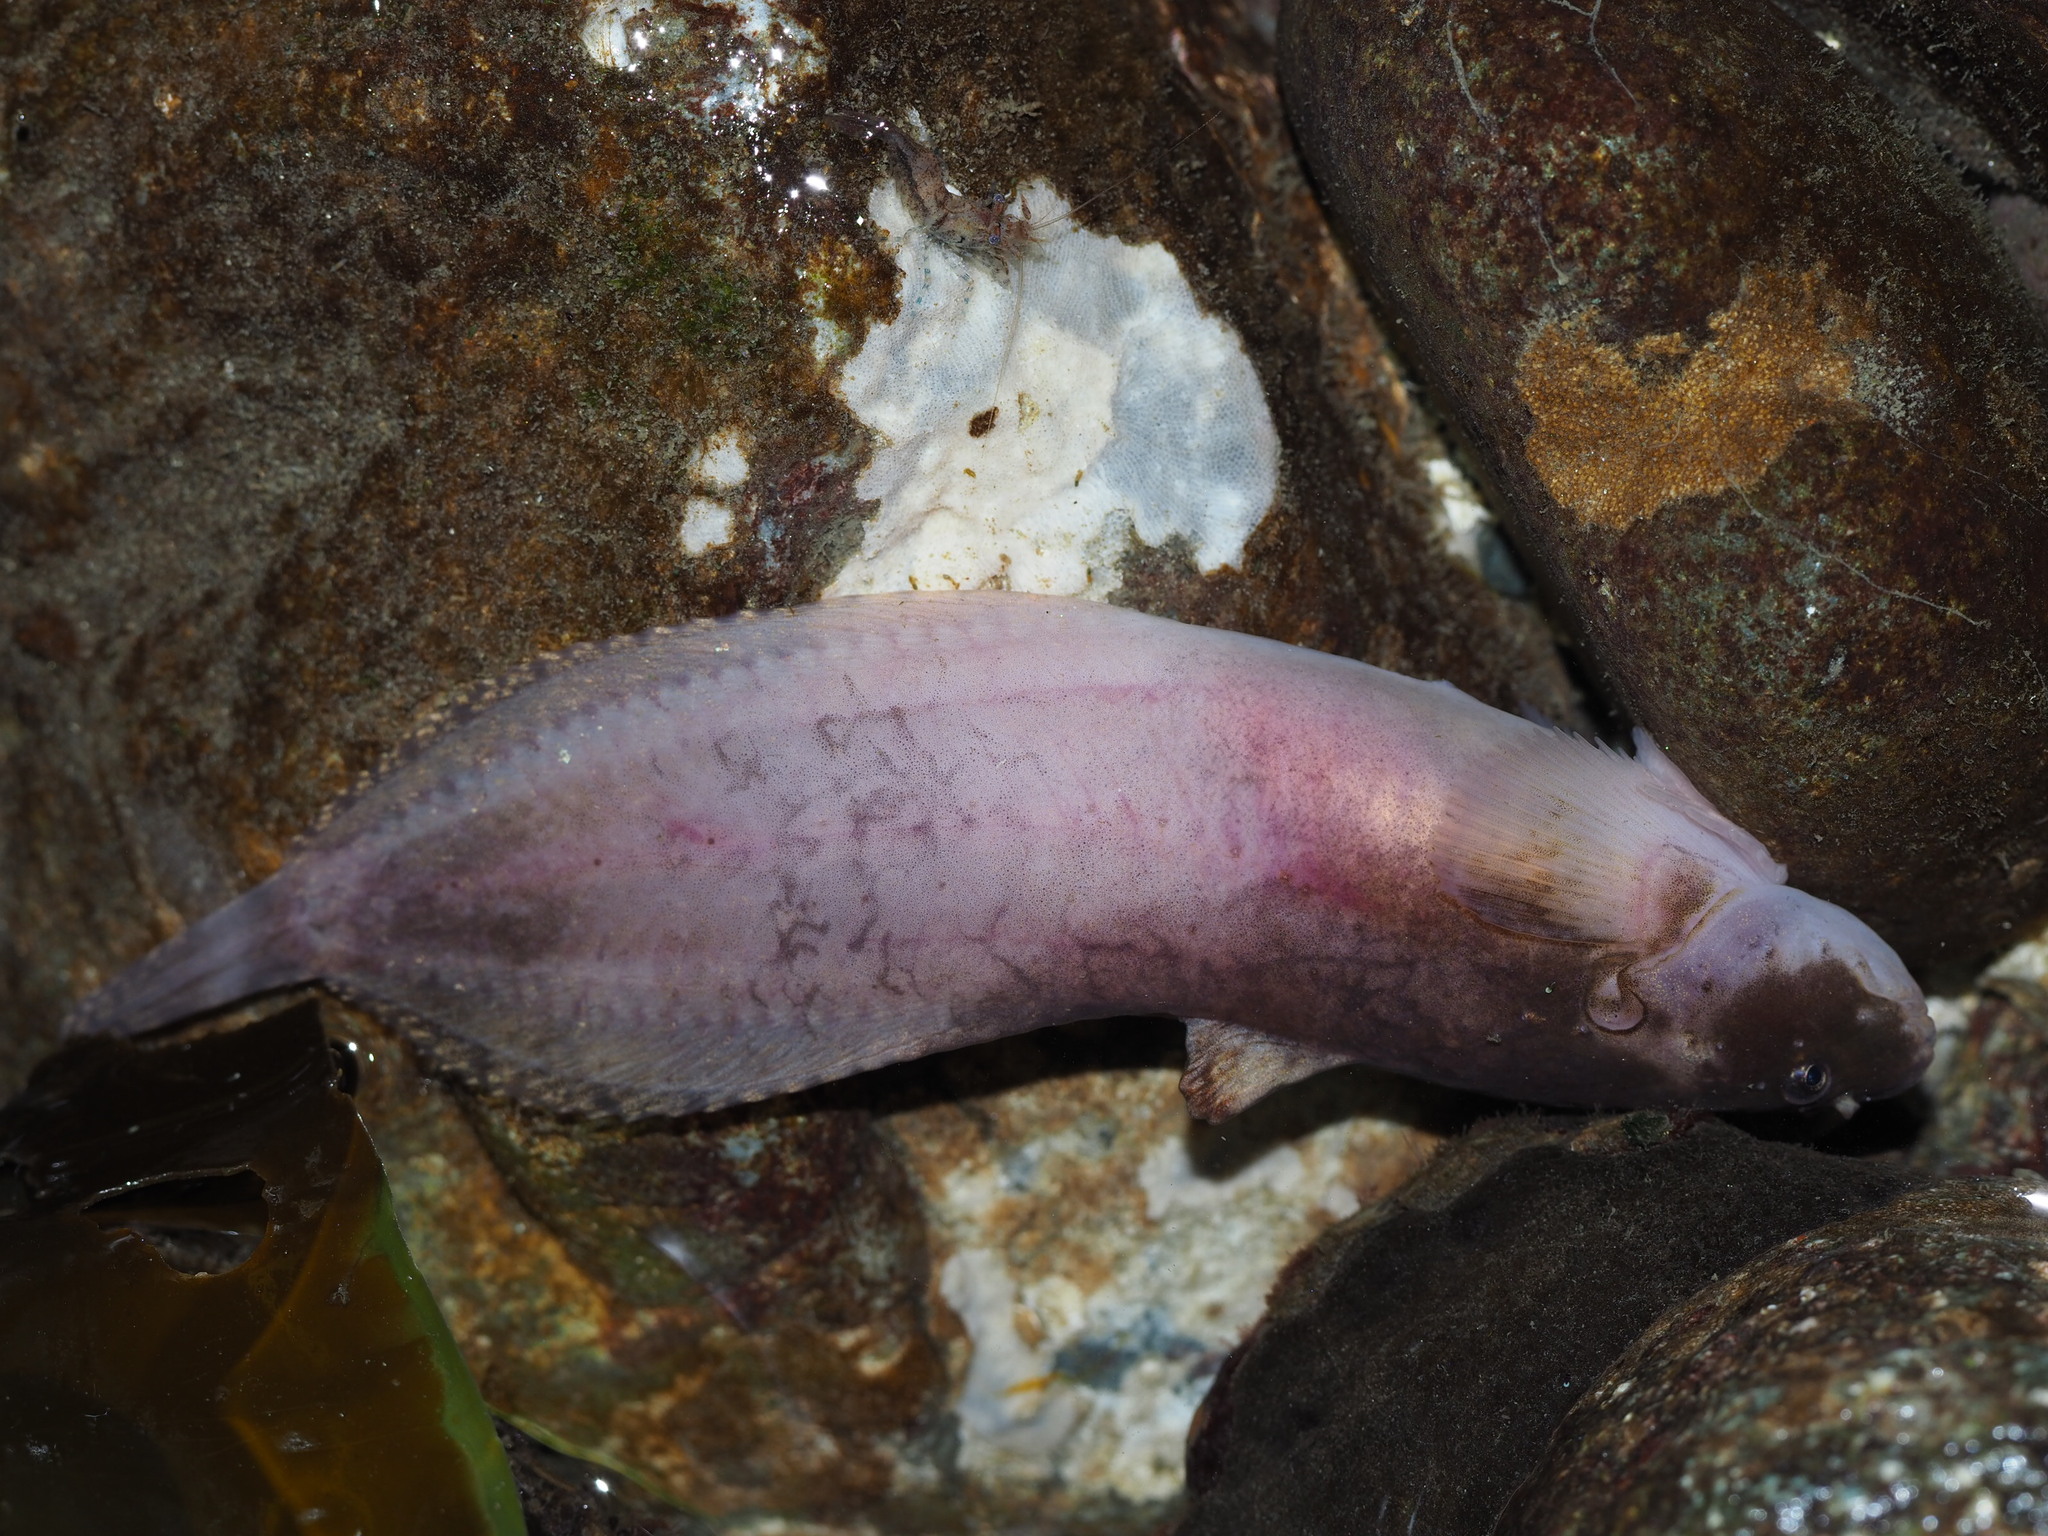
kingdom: Animalia
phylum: Chordata
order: Scorpaeniformes
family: Liparidae
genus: Liparis
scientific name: Liparis florae
